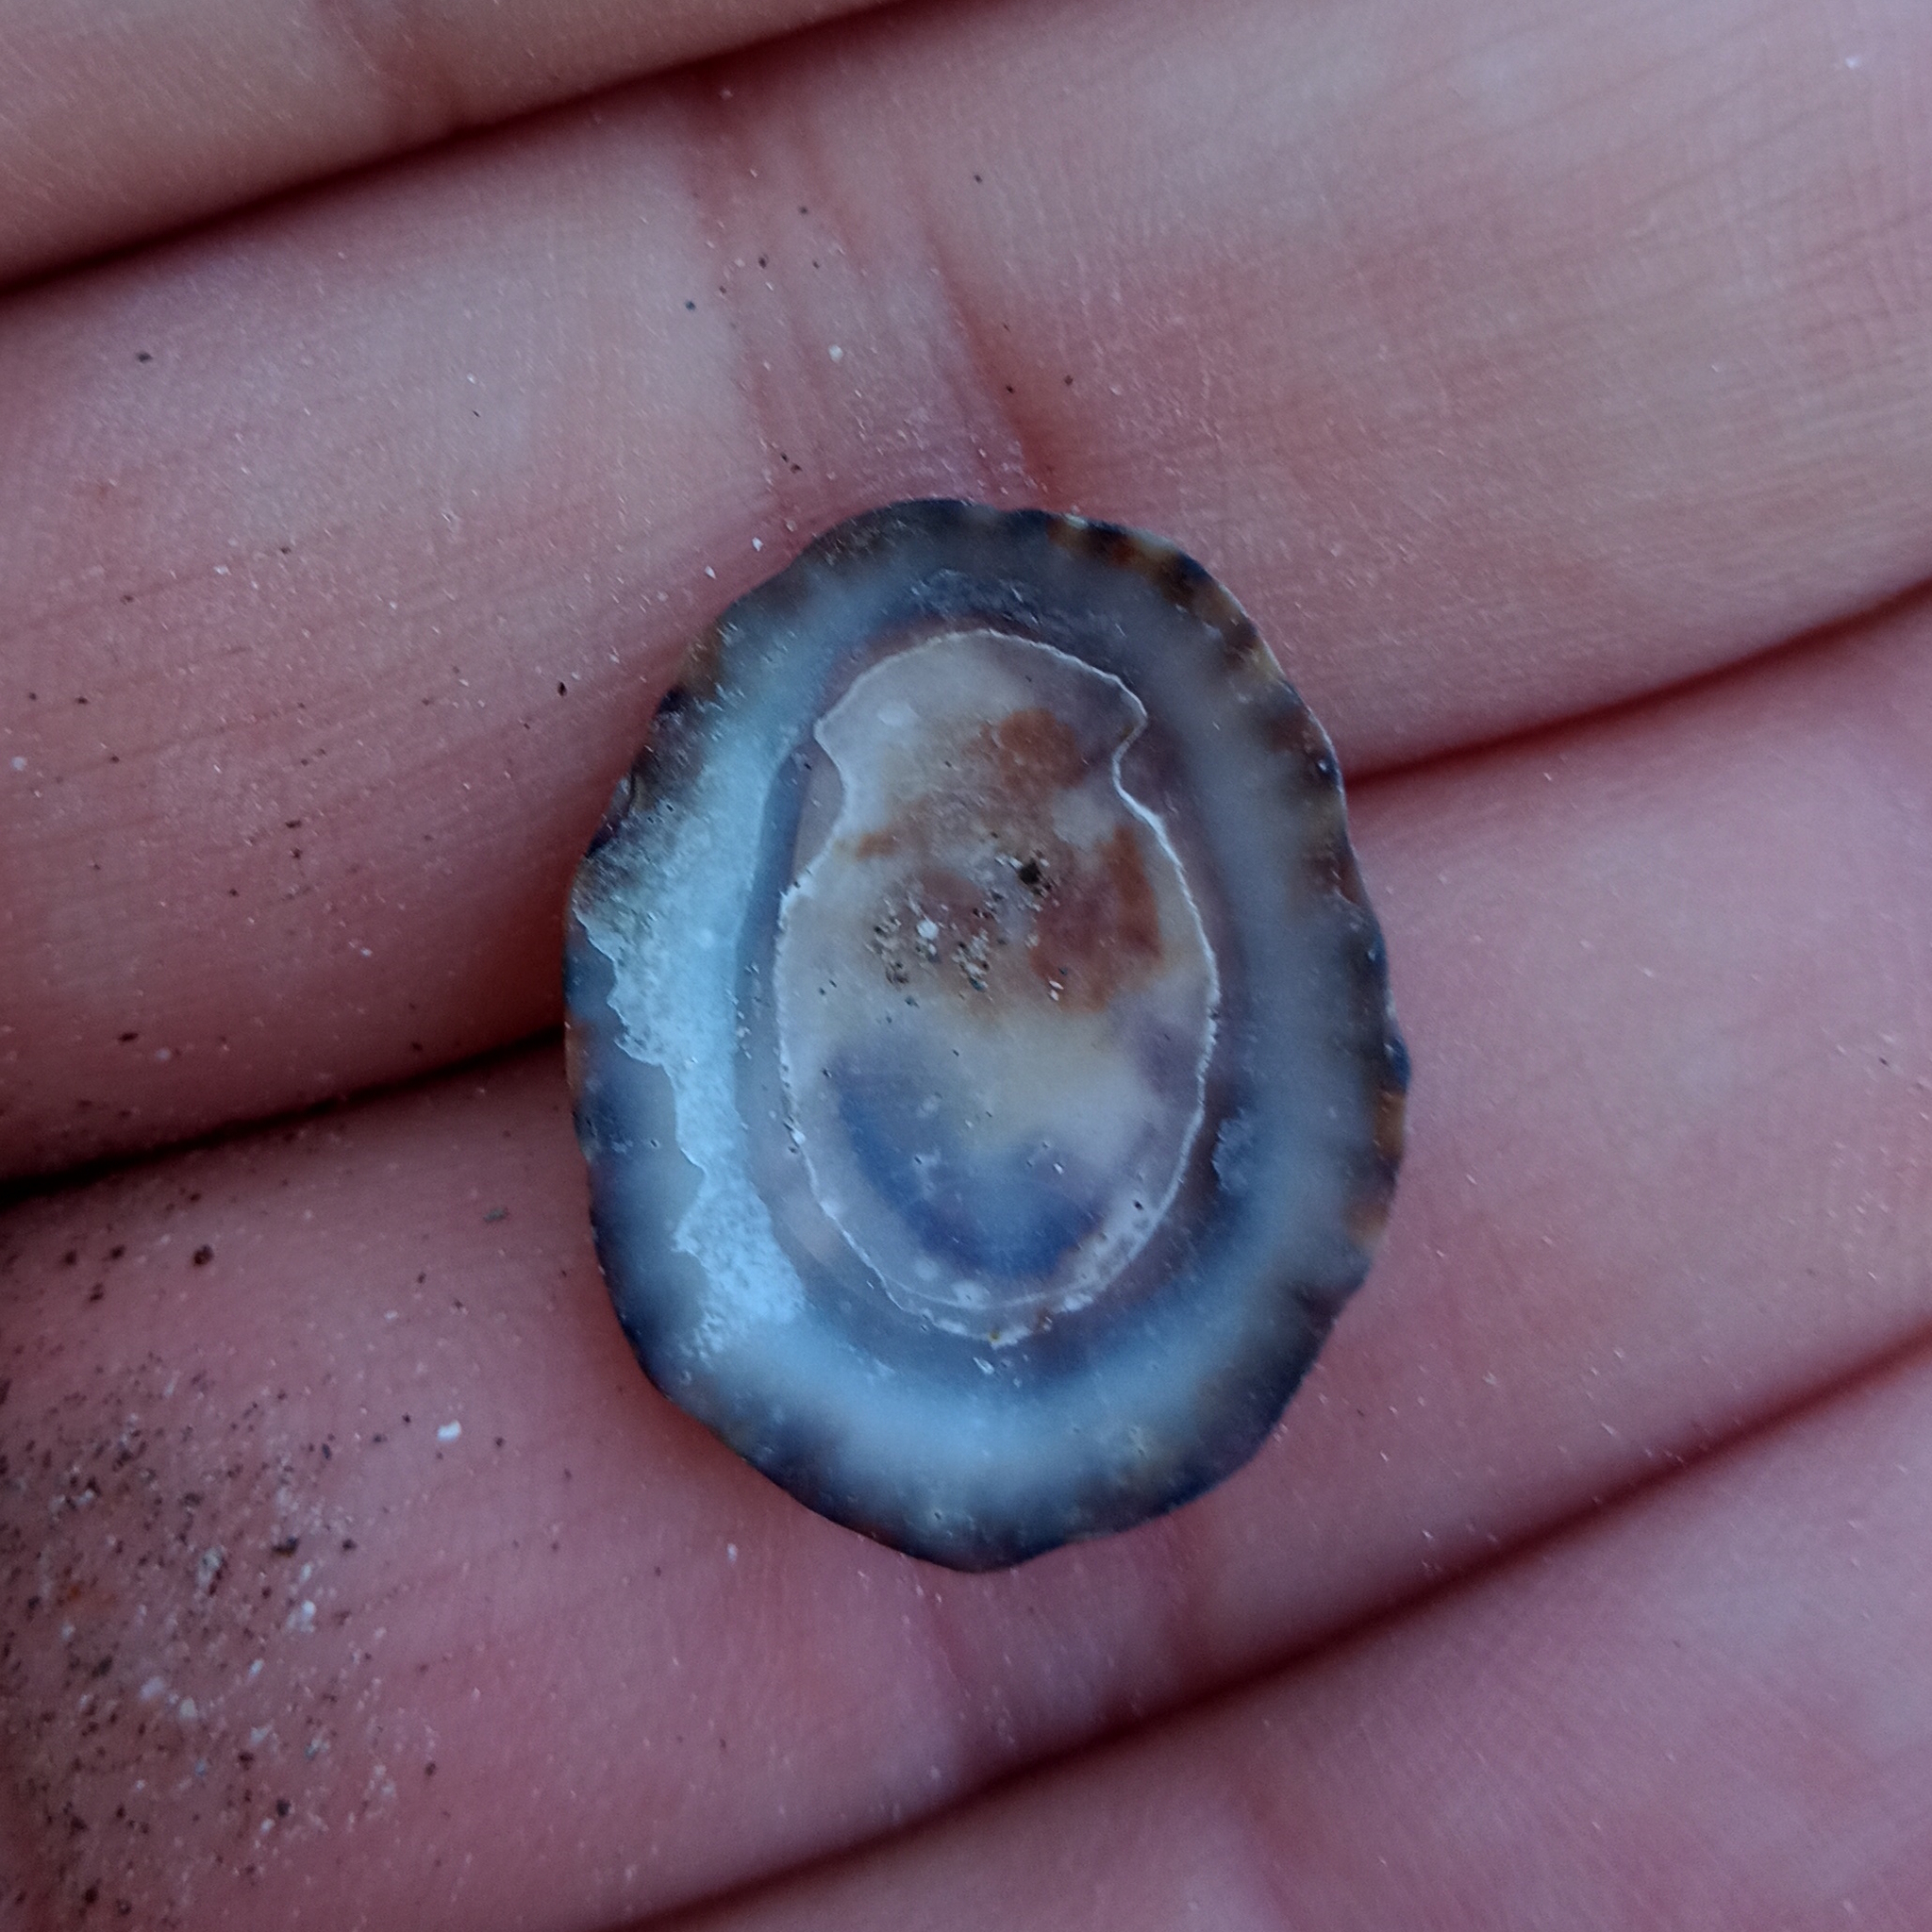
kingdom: Animalia
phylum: Mollusca
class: Gastropoda
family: Lottiidae
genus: Lottia
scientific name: Lottia subrugosa
